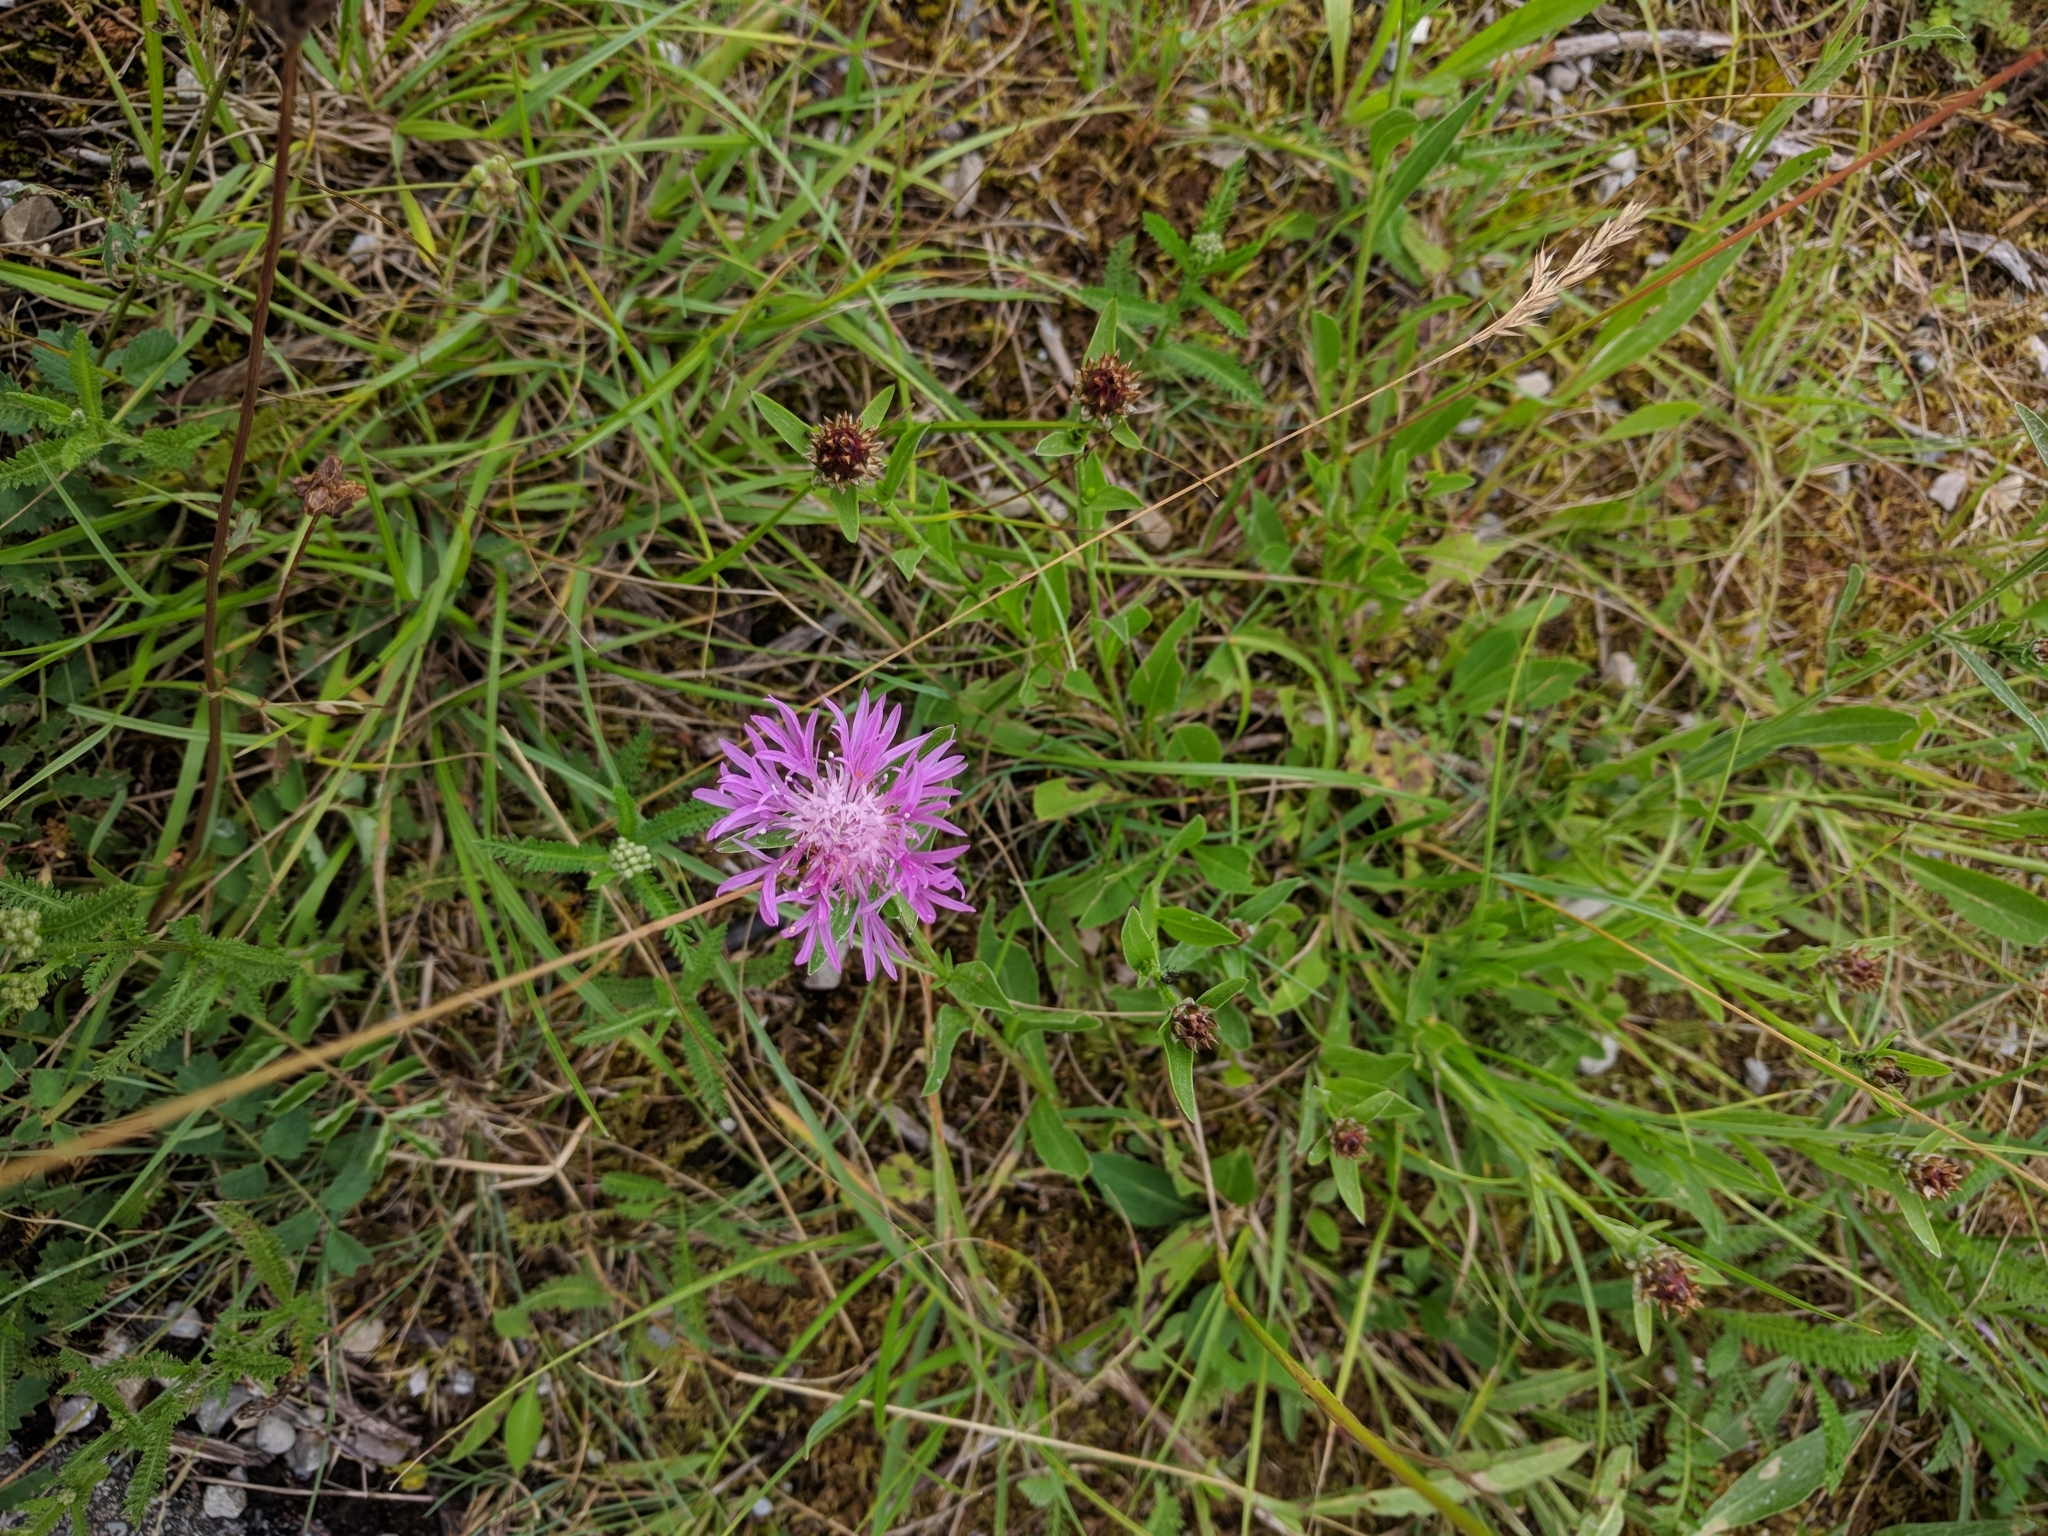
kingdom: Plantae
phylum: Tracheophyta
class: Magnoliopsida
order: Asterales
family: Asteraceae
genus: Centaurea
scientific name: Centaurea jacea
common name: Brown knapweed
